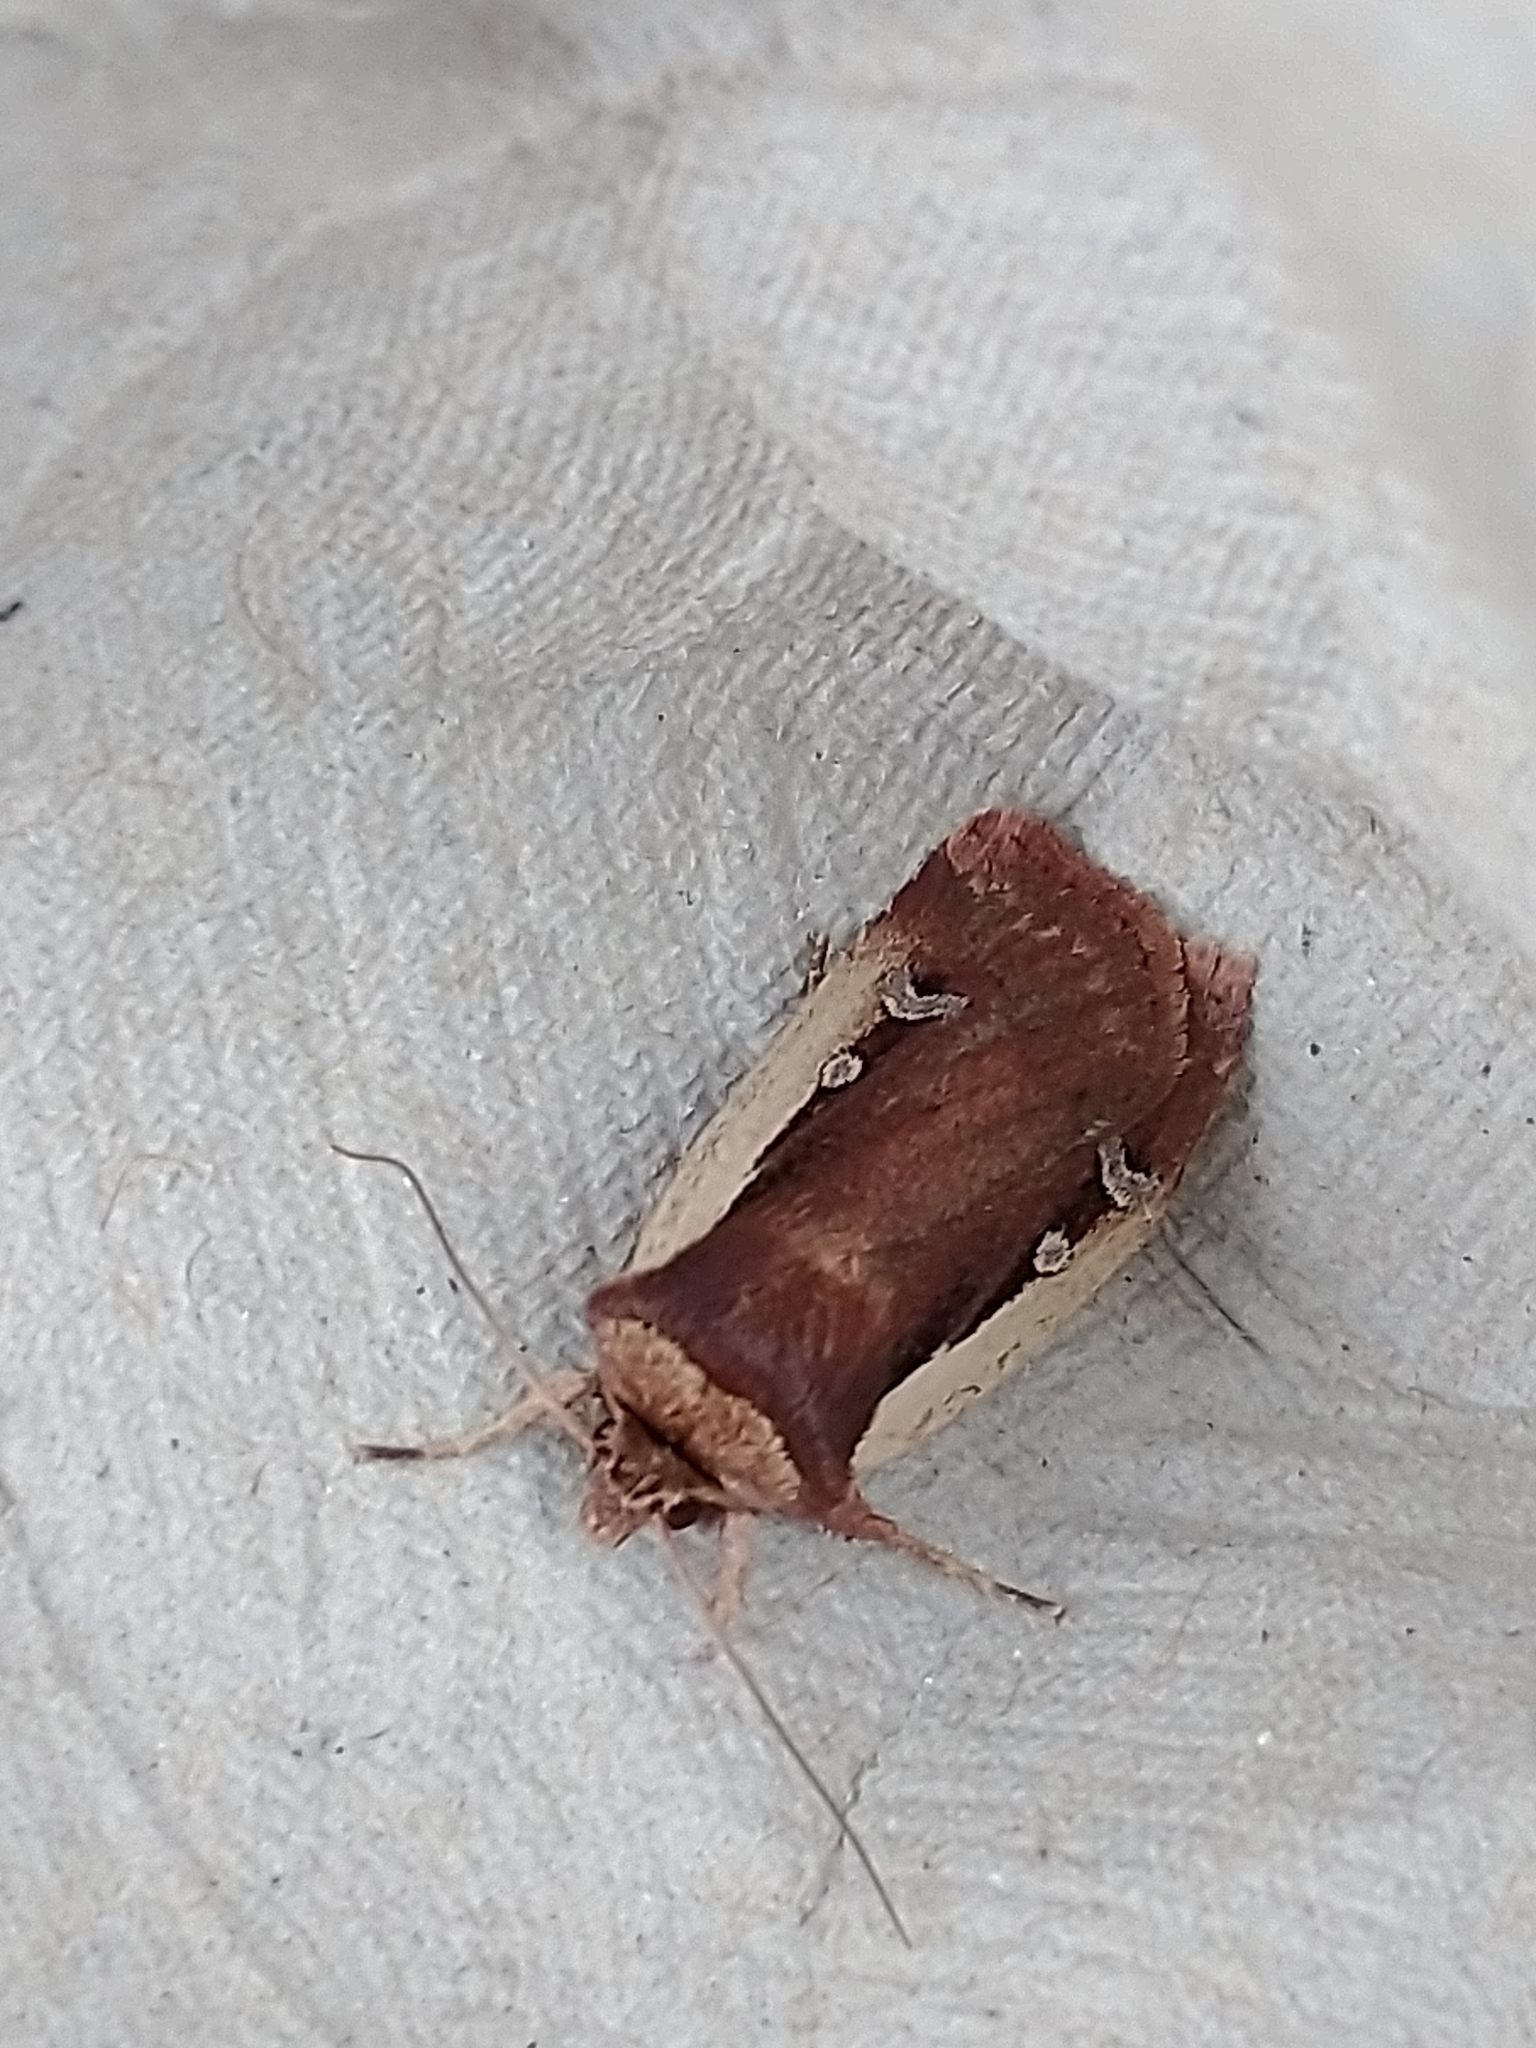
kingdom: Animalia
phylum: Arthropoda
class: Insecta
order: Lepidoptera
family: Noctuidae
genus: Ochropleura
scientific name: Ochropleura plecta
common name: Flame shoulder
